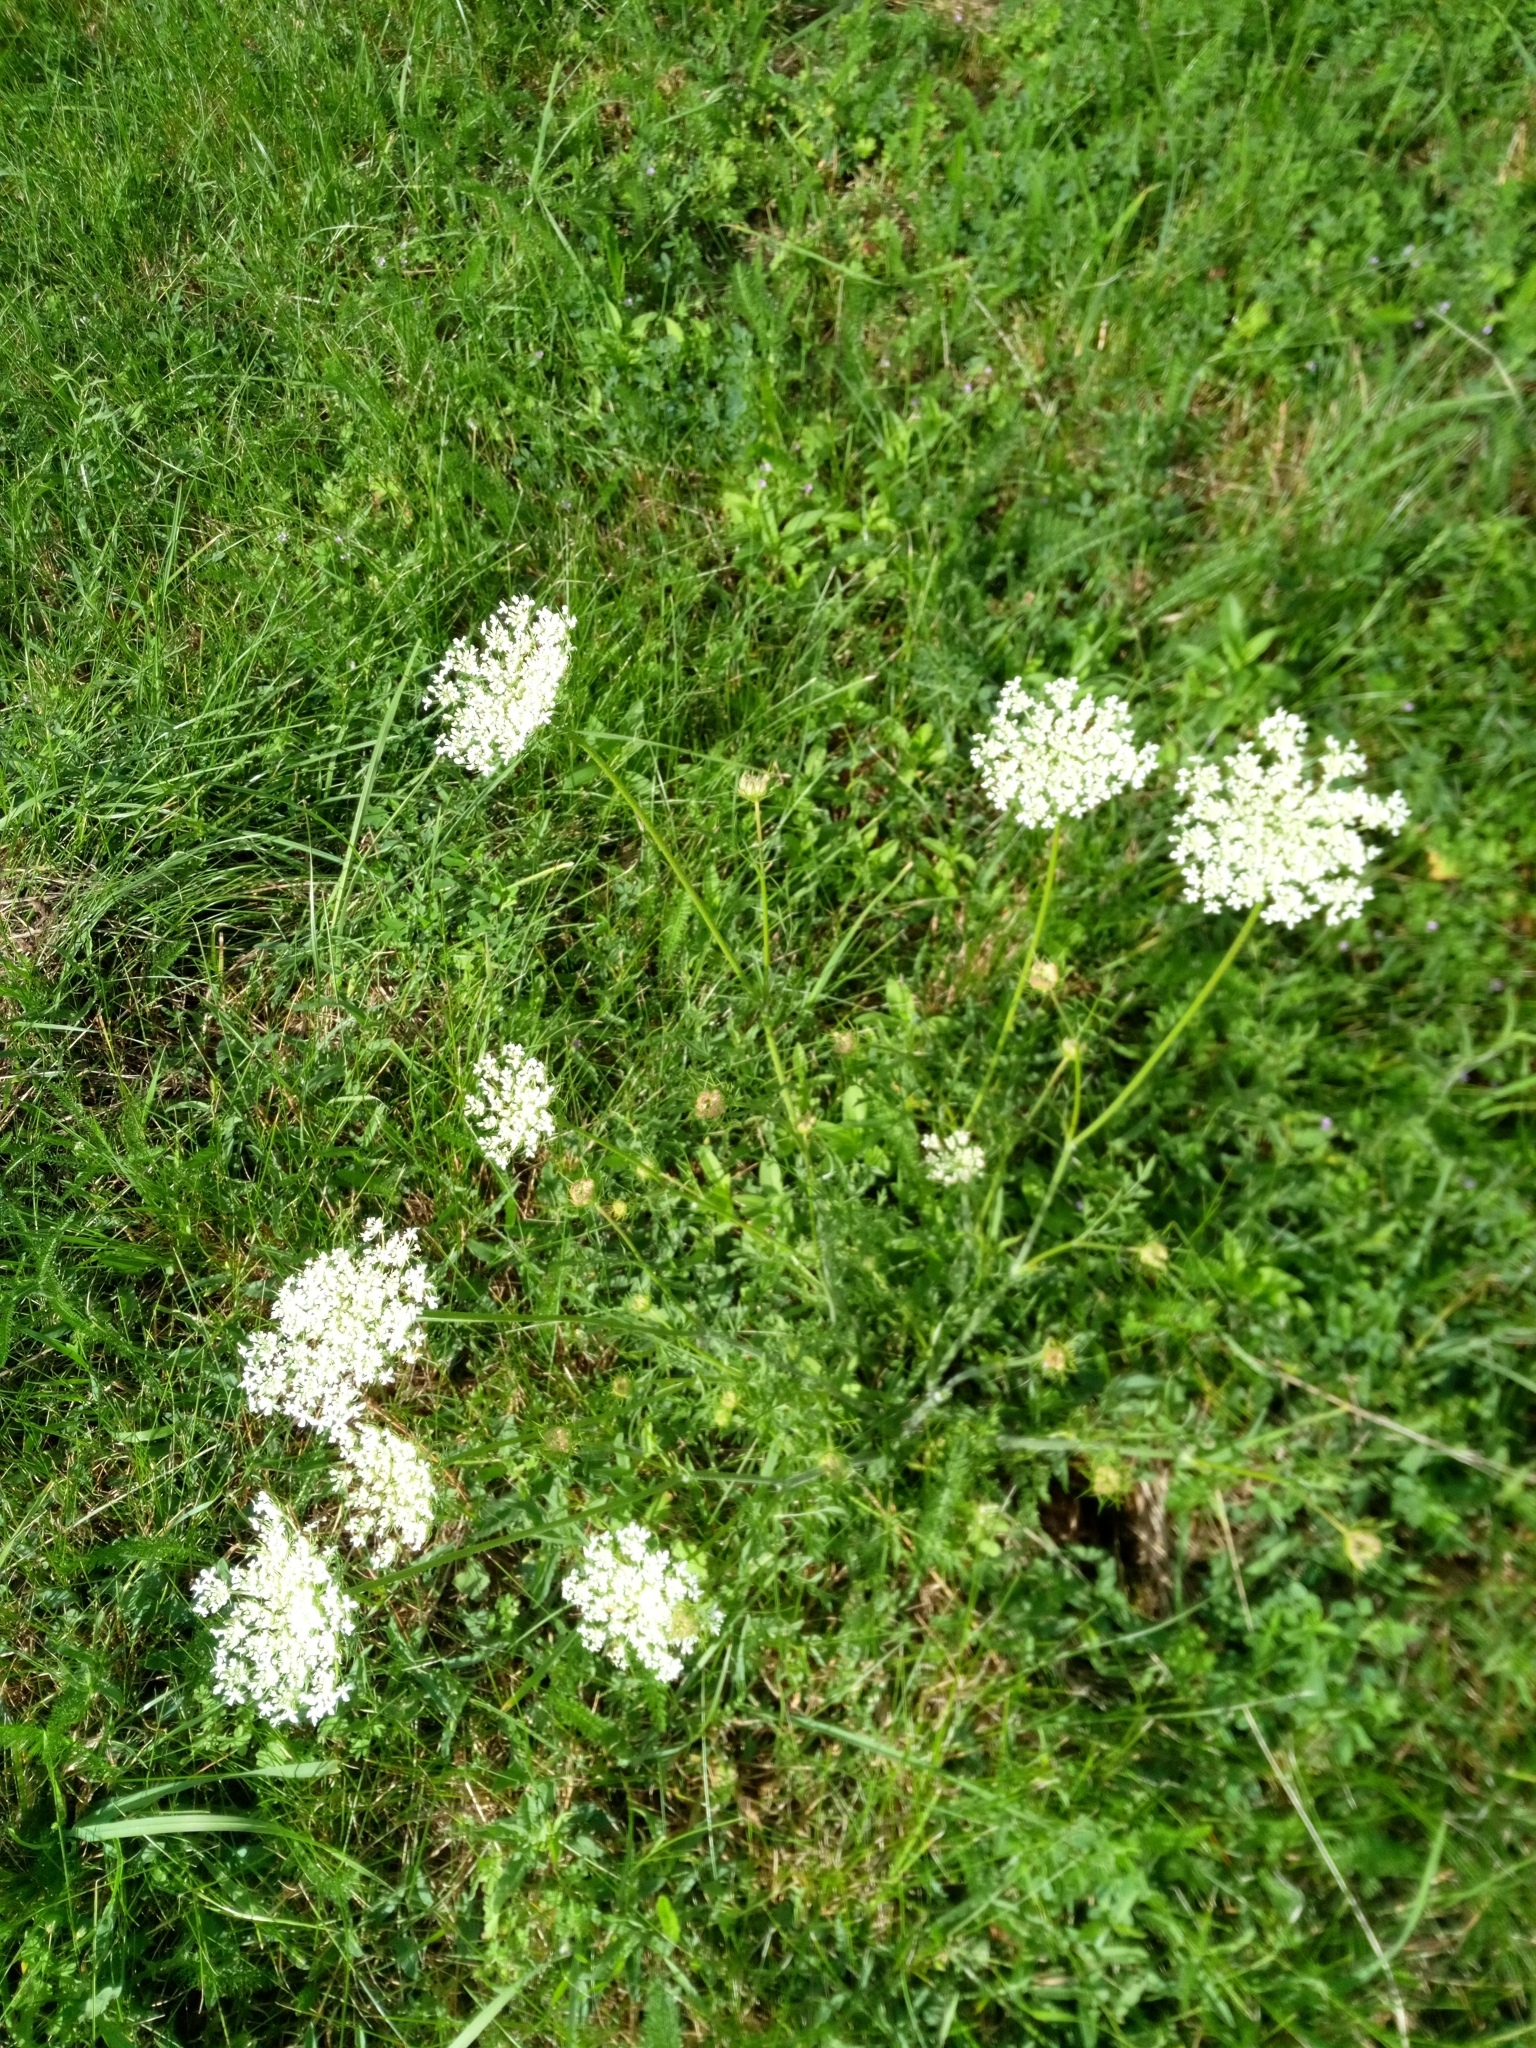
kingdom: Plantae
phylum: Tracheophyta
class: Magnoliopsida
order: Apiales
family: Apiaceae
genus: Daucus
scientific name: Daucus carota
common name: Wild carrot
